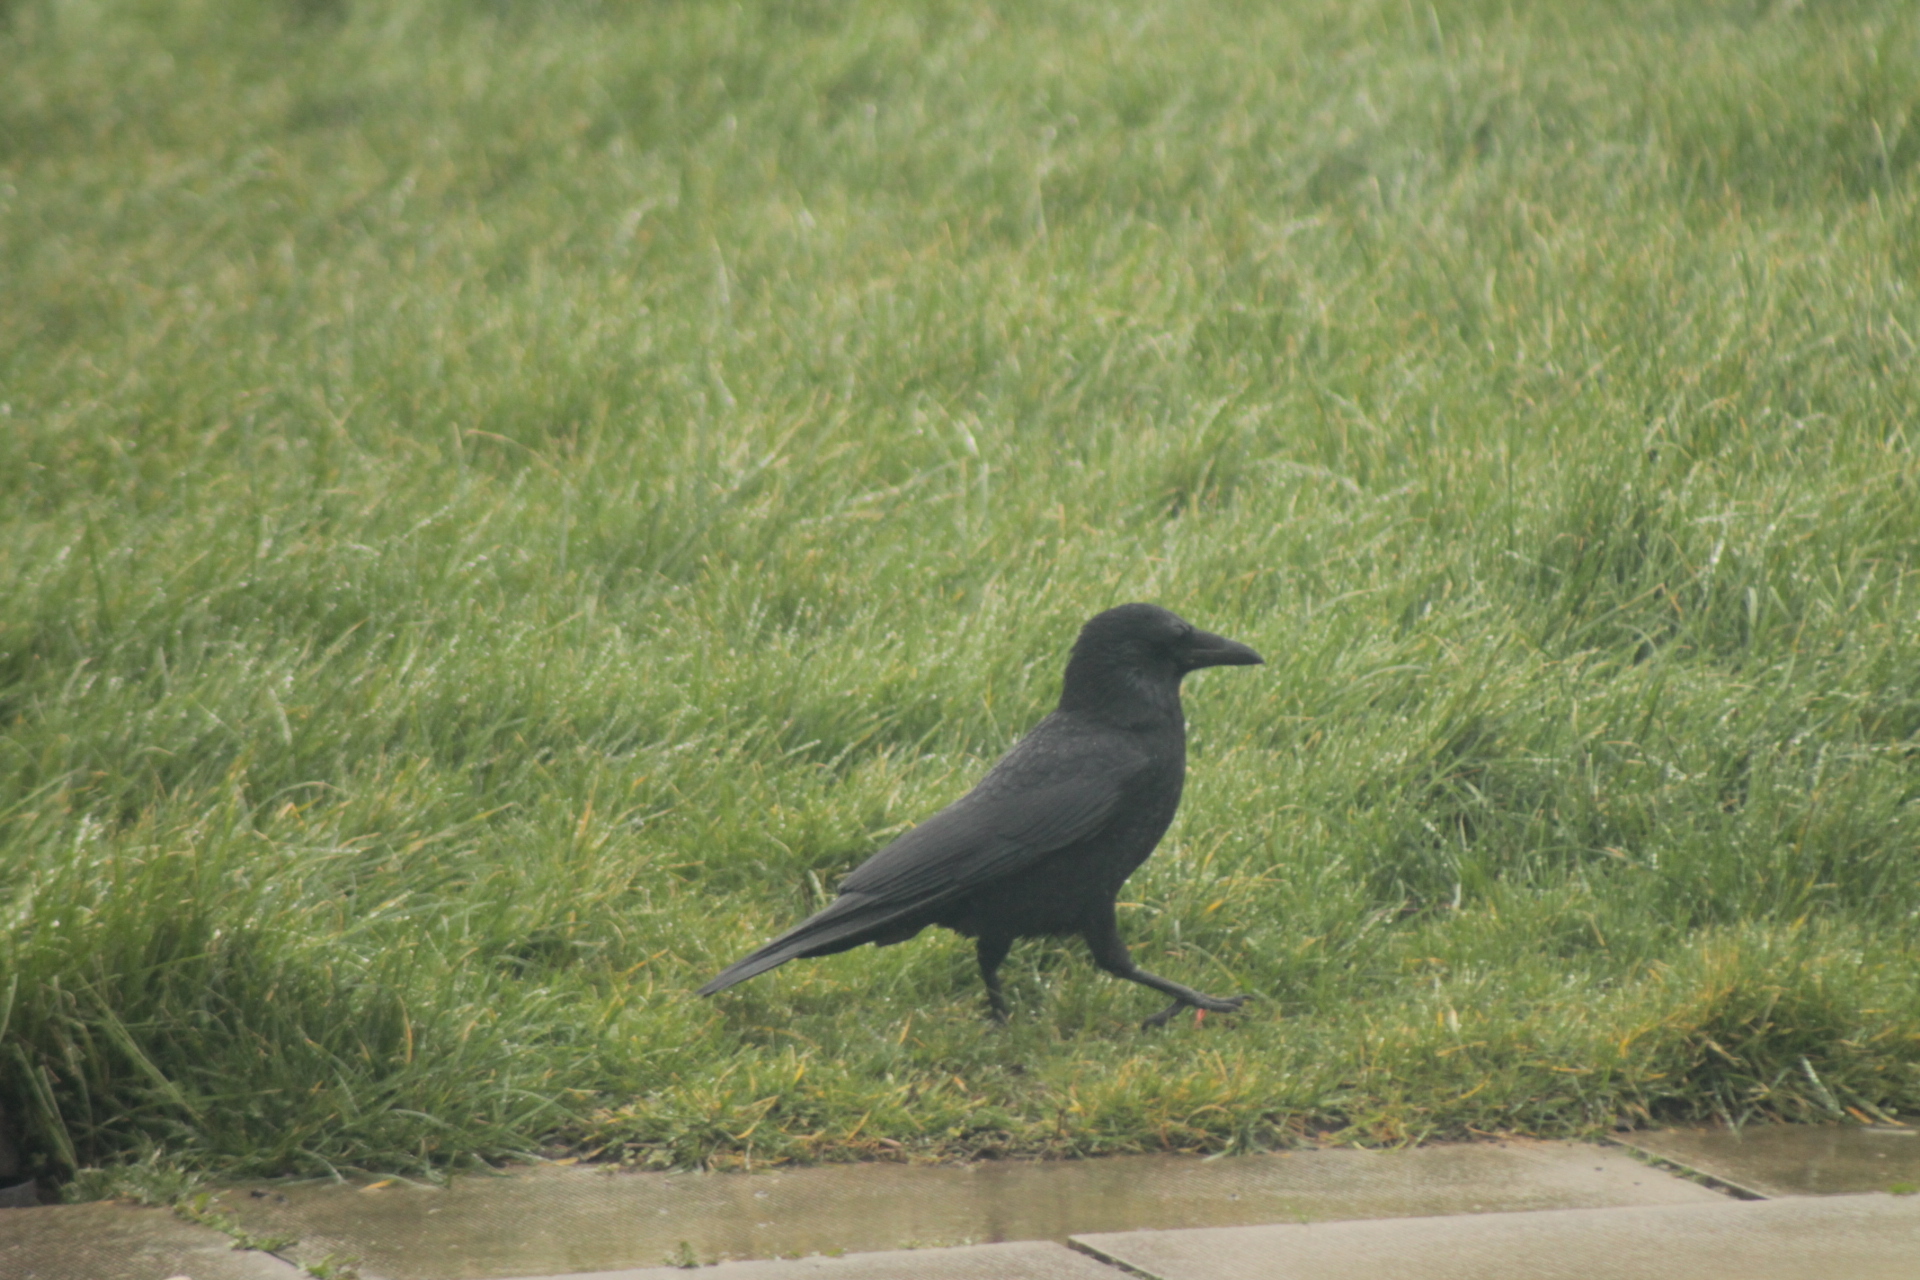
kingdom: Animalia
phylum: Chordata
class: Aves
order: Passeriformes
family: Corvidae
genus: Corvus
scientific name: Corvus corone
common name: Carrion crow
